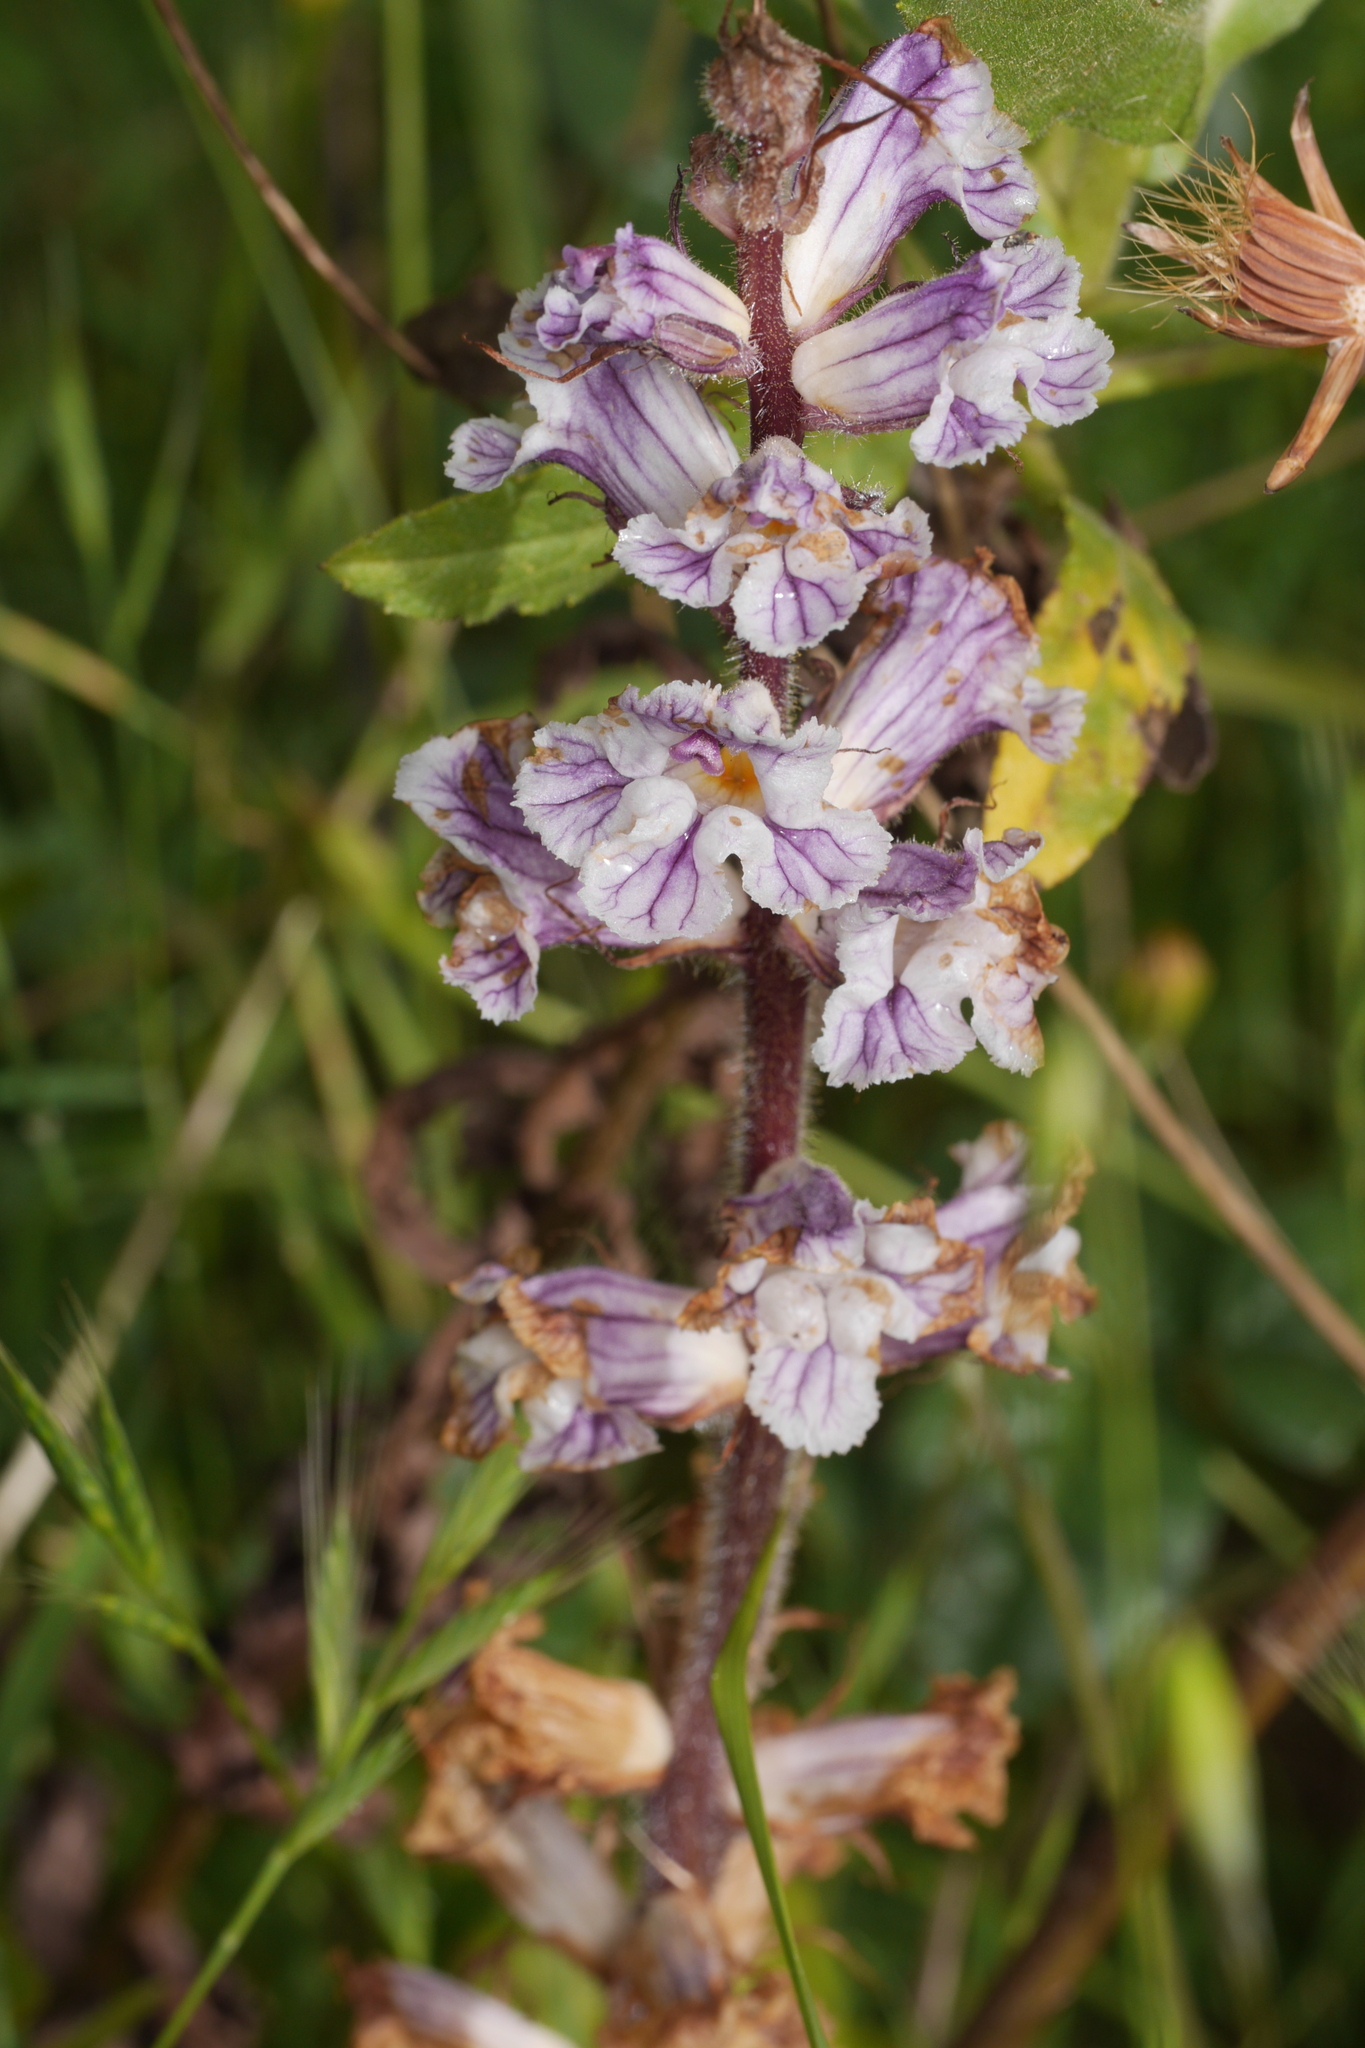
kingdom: Plantae
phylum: Tracheophyta
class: Magnoliopsida
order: Lamiales
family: Orobanchaceae
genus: Orobanche
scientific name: Orobanche crenata
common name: Bean broomrape
